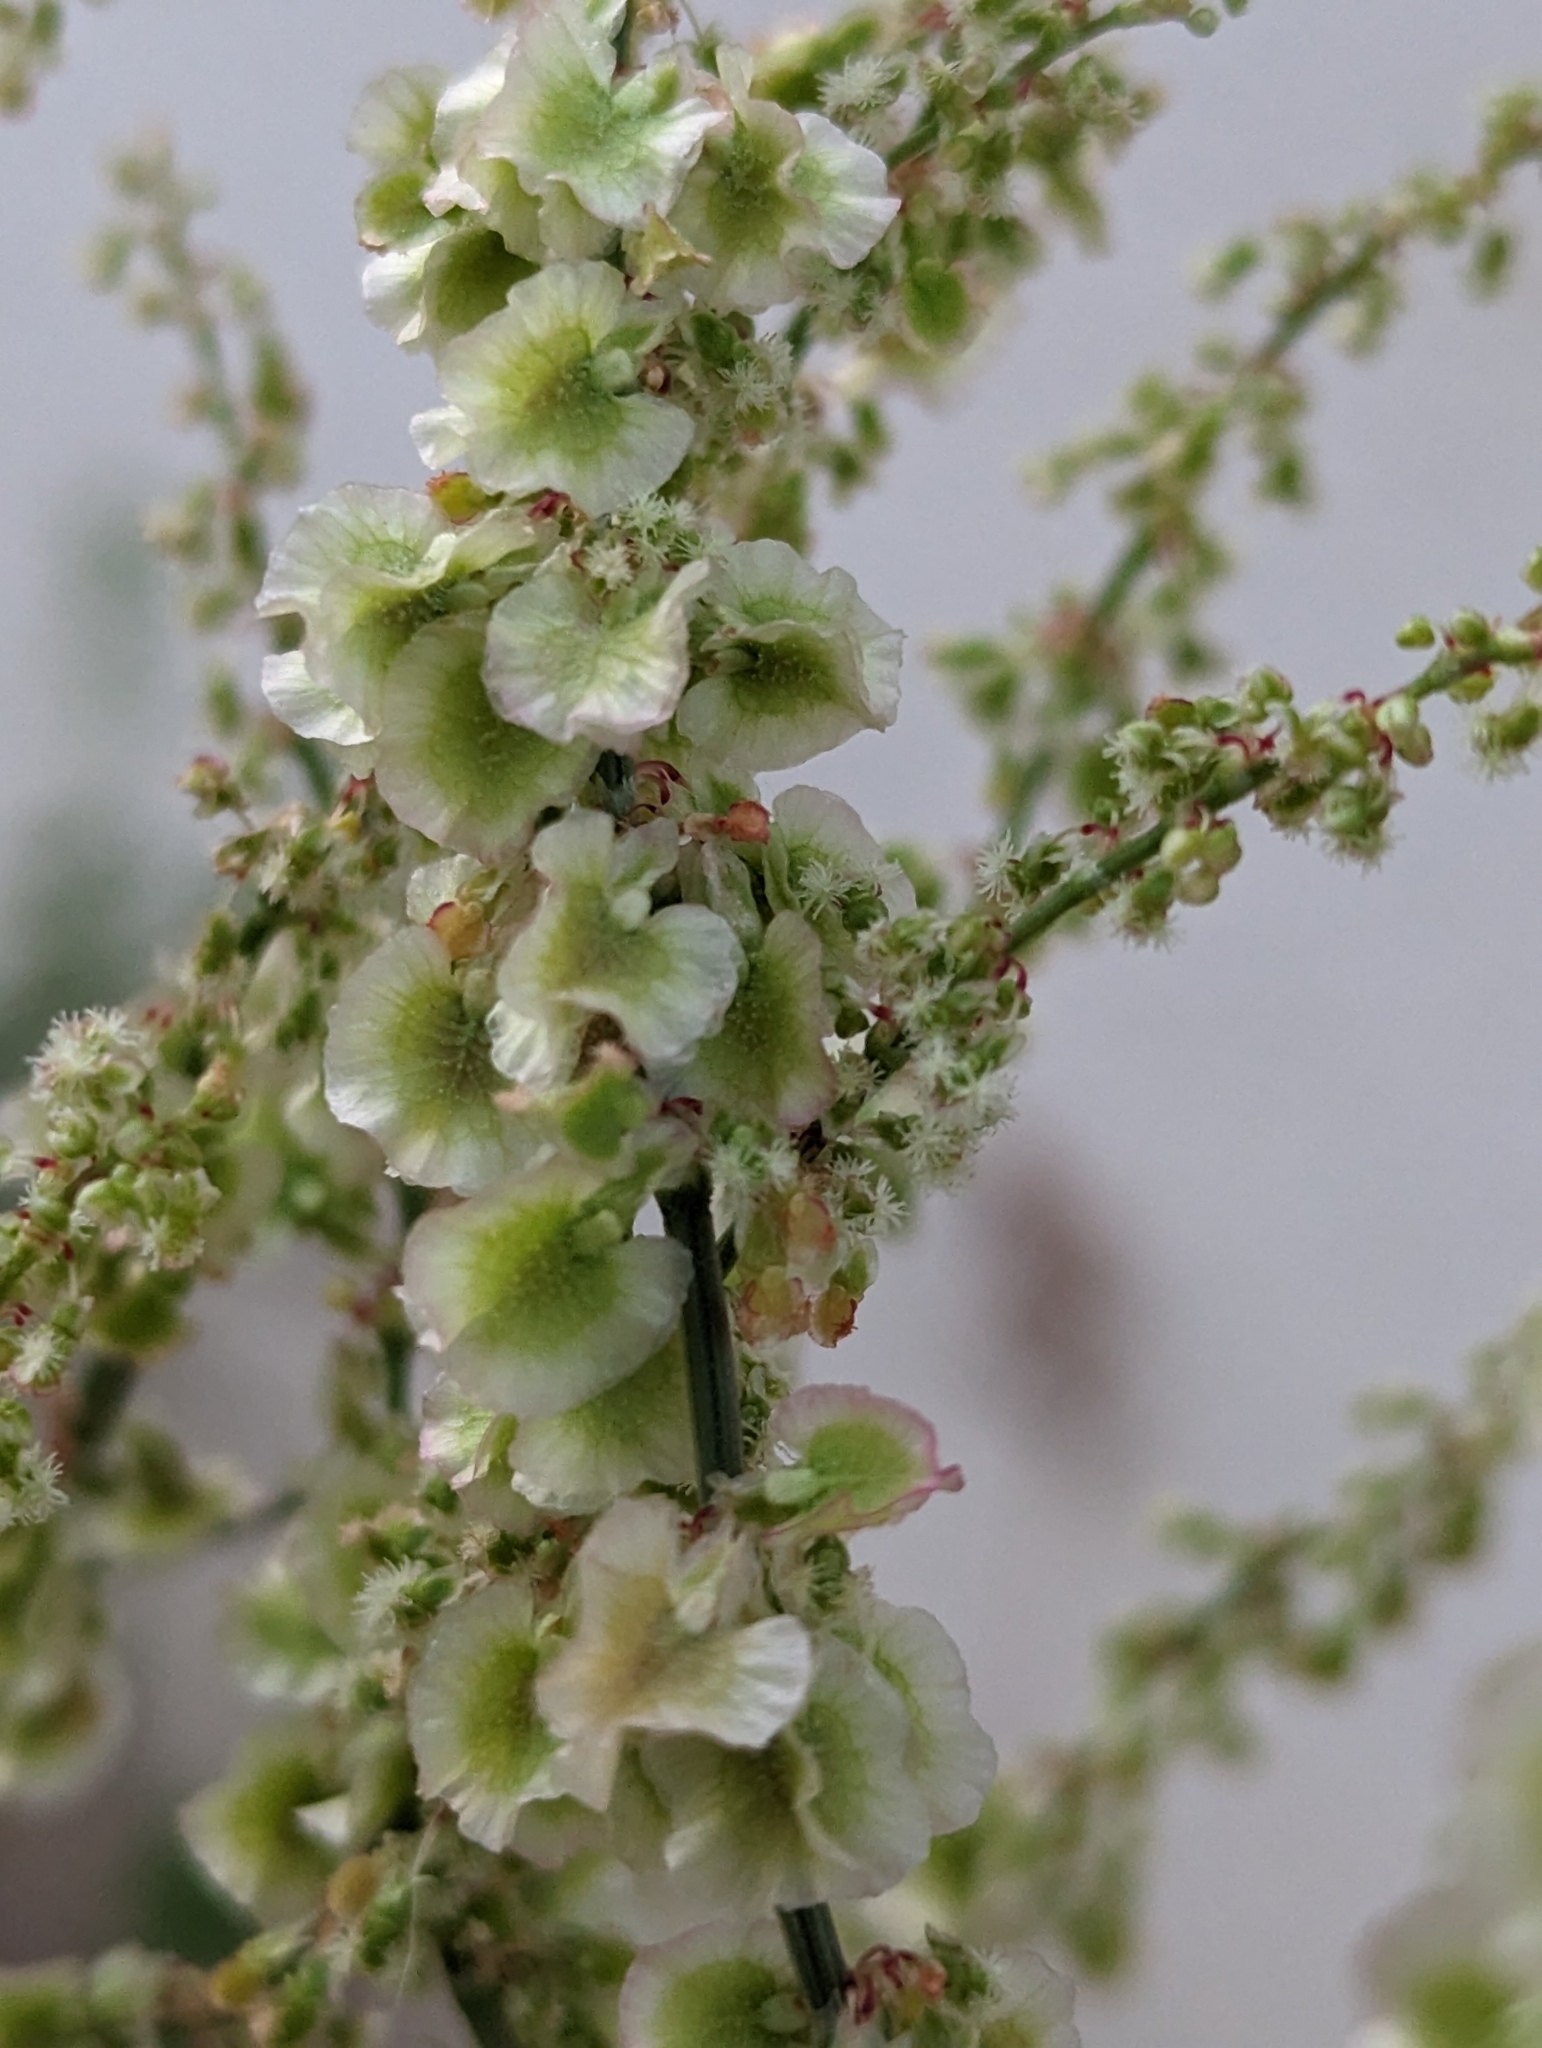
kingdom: Plantae
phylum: Tracheophyta
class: Magnoliopsida
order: Caryophyllales
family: Polygonaceae
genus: Rumex
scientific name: Rumex intermedius
